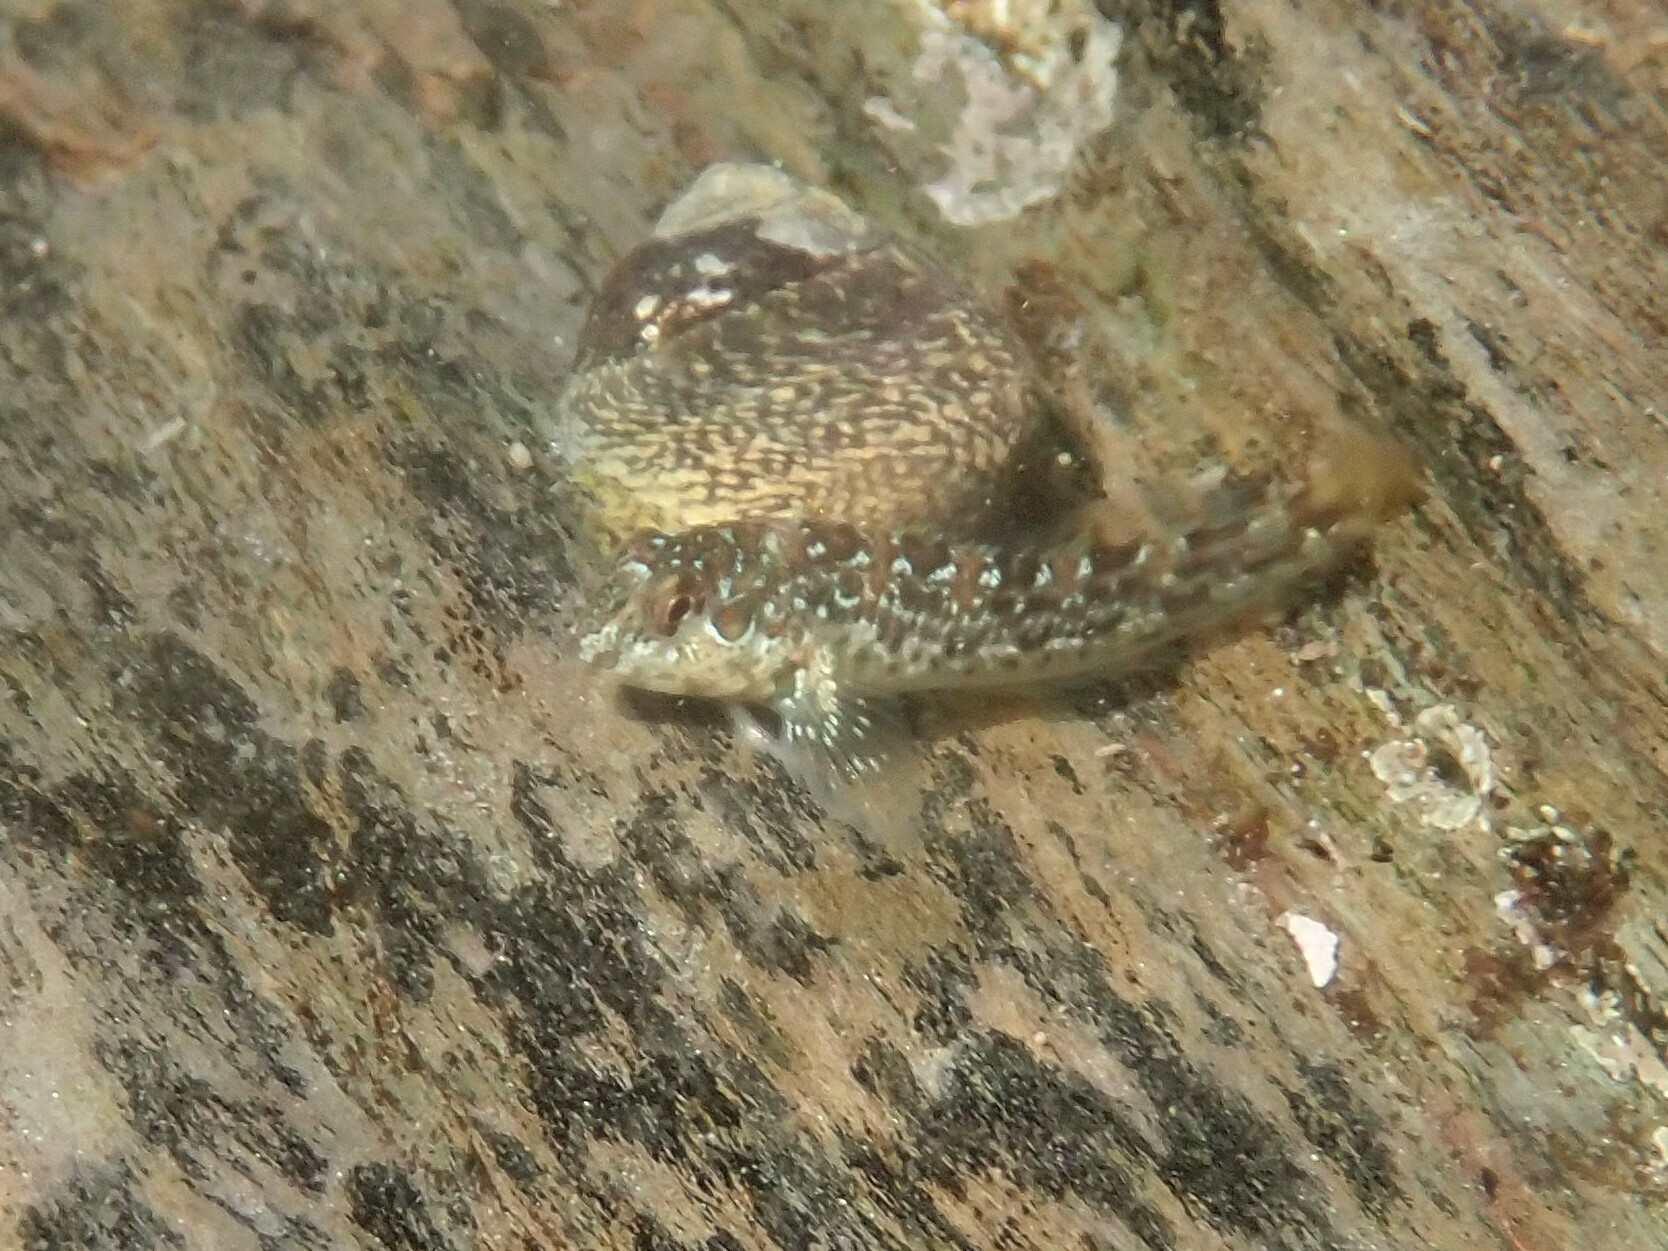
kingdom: Animalia
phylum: Chordata
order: Perciformes
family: Blenniidae
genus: Lipophrys
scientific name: Lipophrys pholis
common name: Shanny
